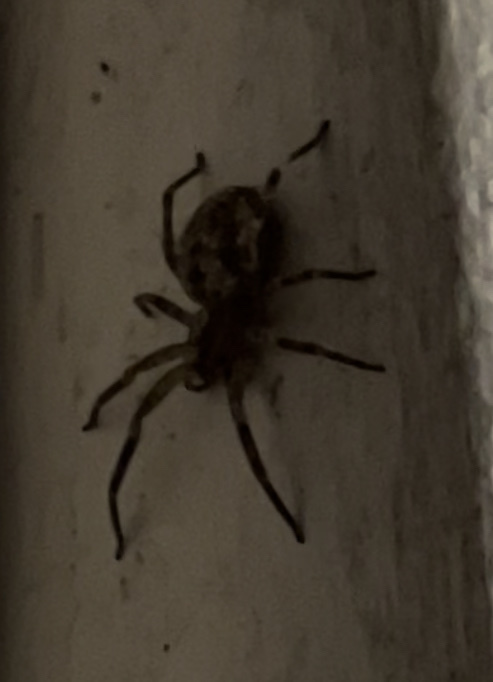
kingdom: Animalia
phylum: Arthropoda
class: Arachnida
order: Araneae
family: Zoropsidae
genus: Zoropsis
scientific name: Zoropsis spinimana
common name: Zoropsid spider
